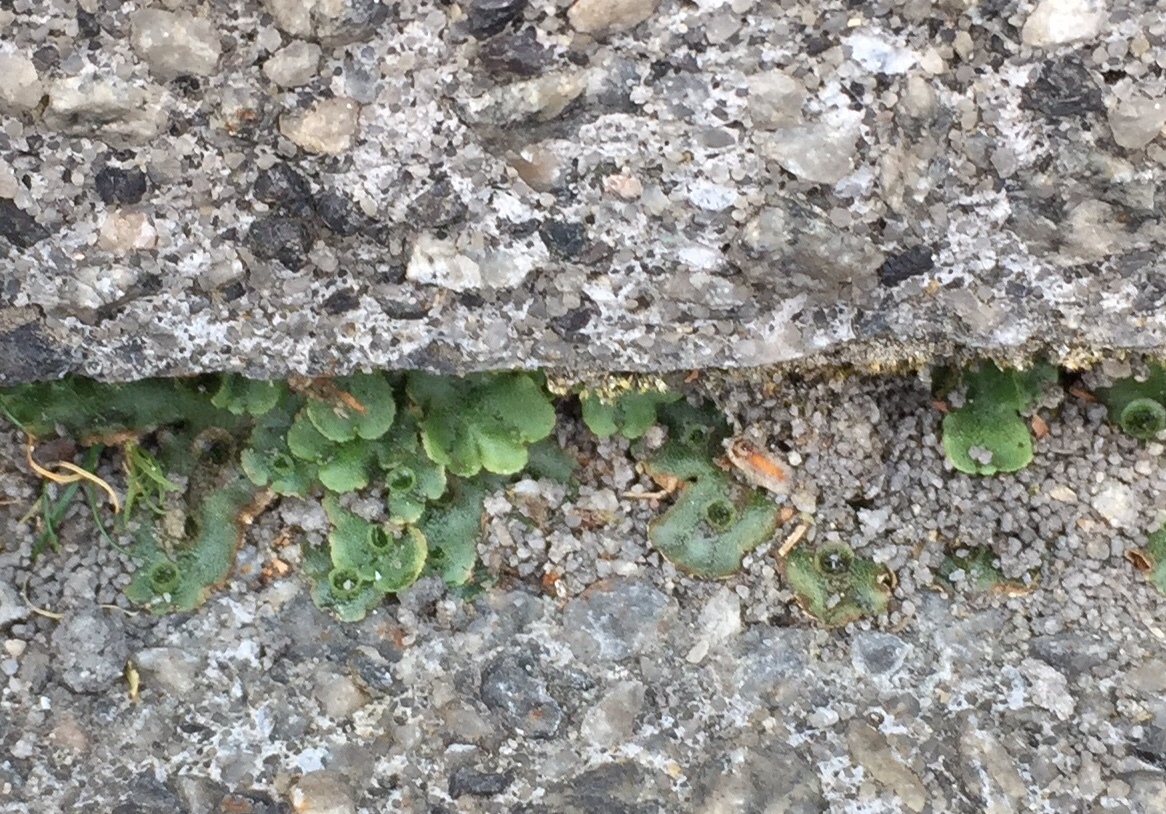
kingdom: Plantae
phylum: Marchantiophyta
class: Marchantiopsida
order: Marchantiales
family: Marchantiaceae
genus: Marchantia
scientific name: Marchantia polymorpha
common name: Common liverwort
